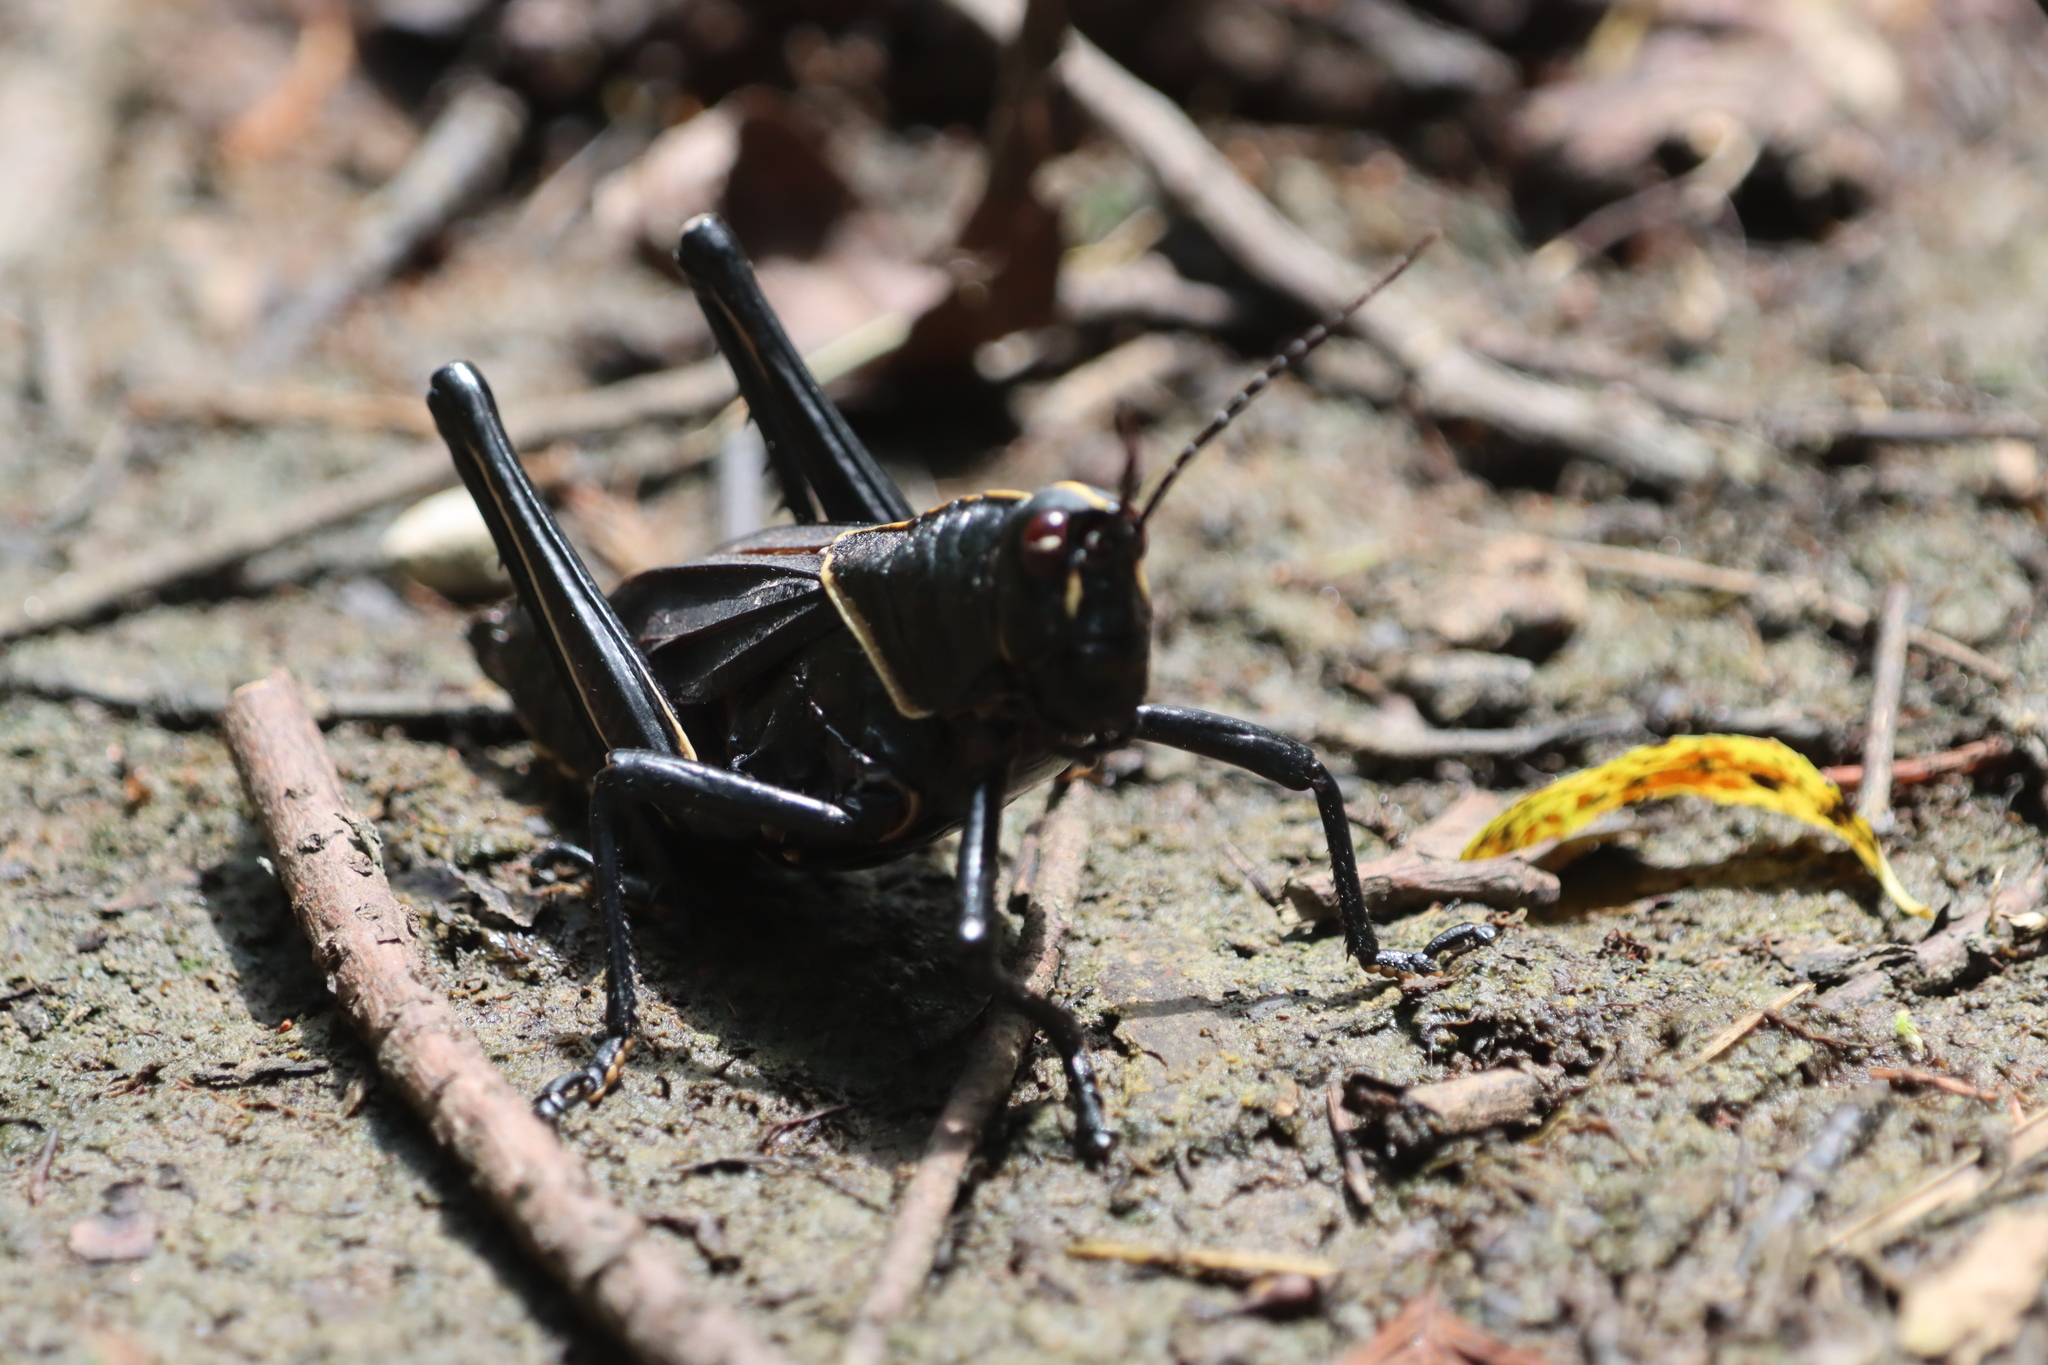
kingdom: Animalia
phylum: Arthropoda
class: Insecta
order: Orthoptera
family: Romaleidae
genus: Romalea
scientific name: Romalea microptera
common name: Eastern lubber grasshopper
